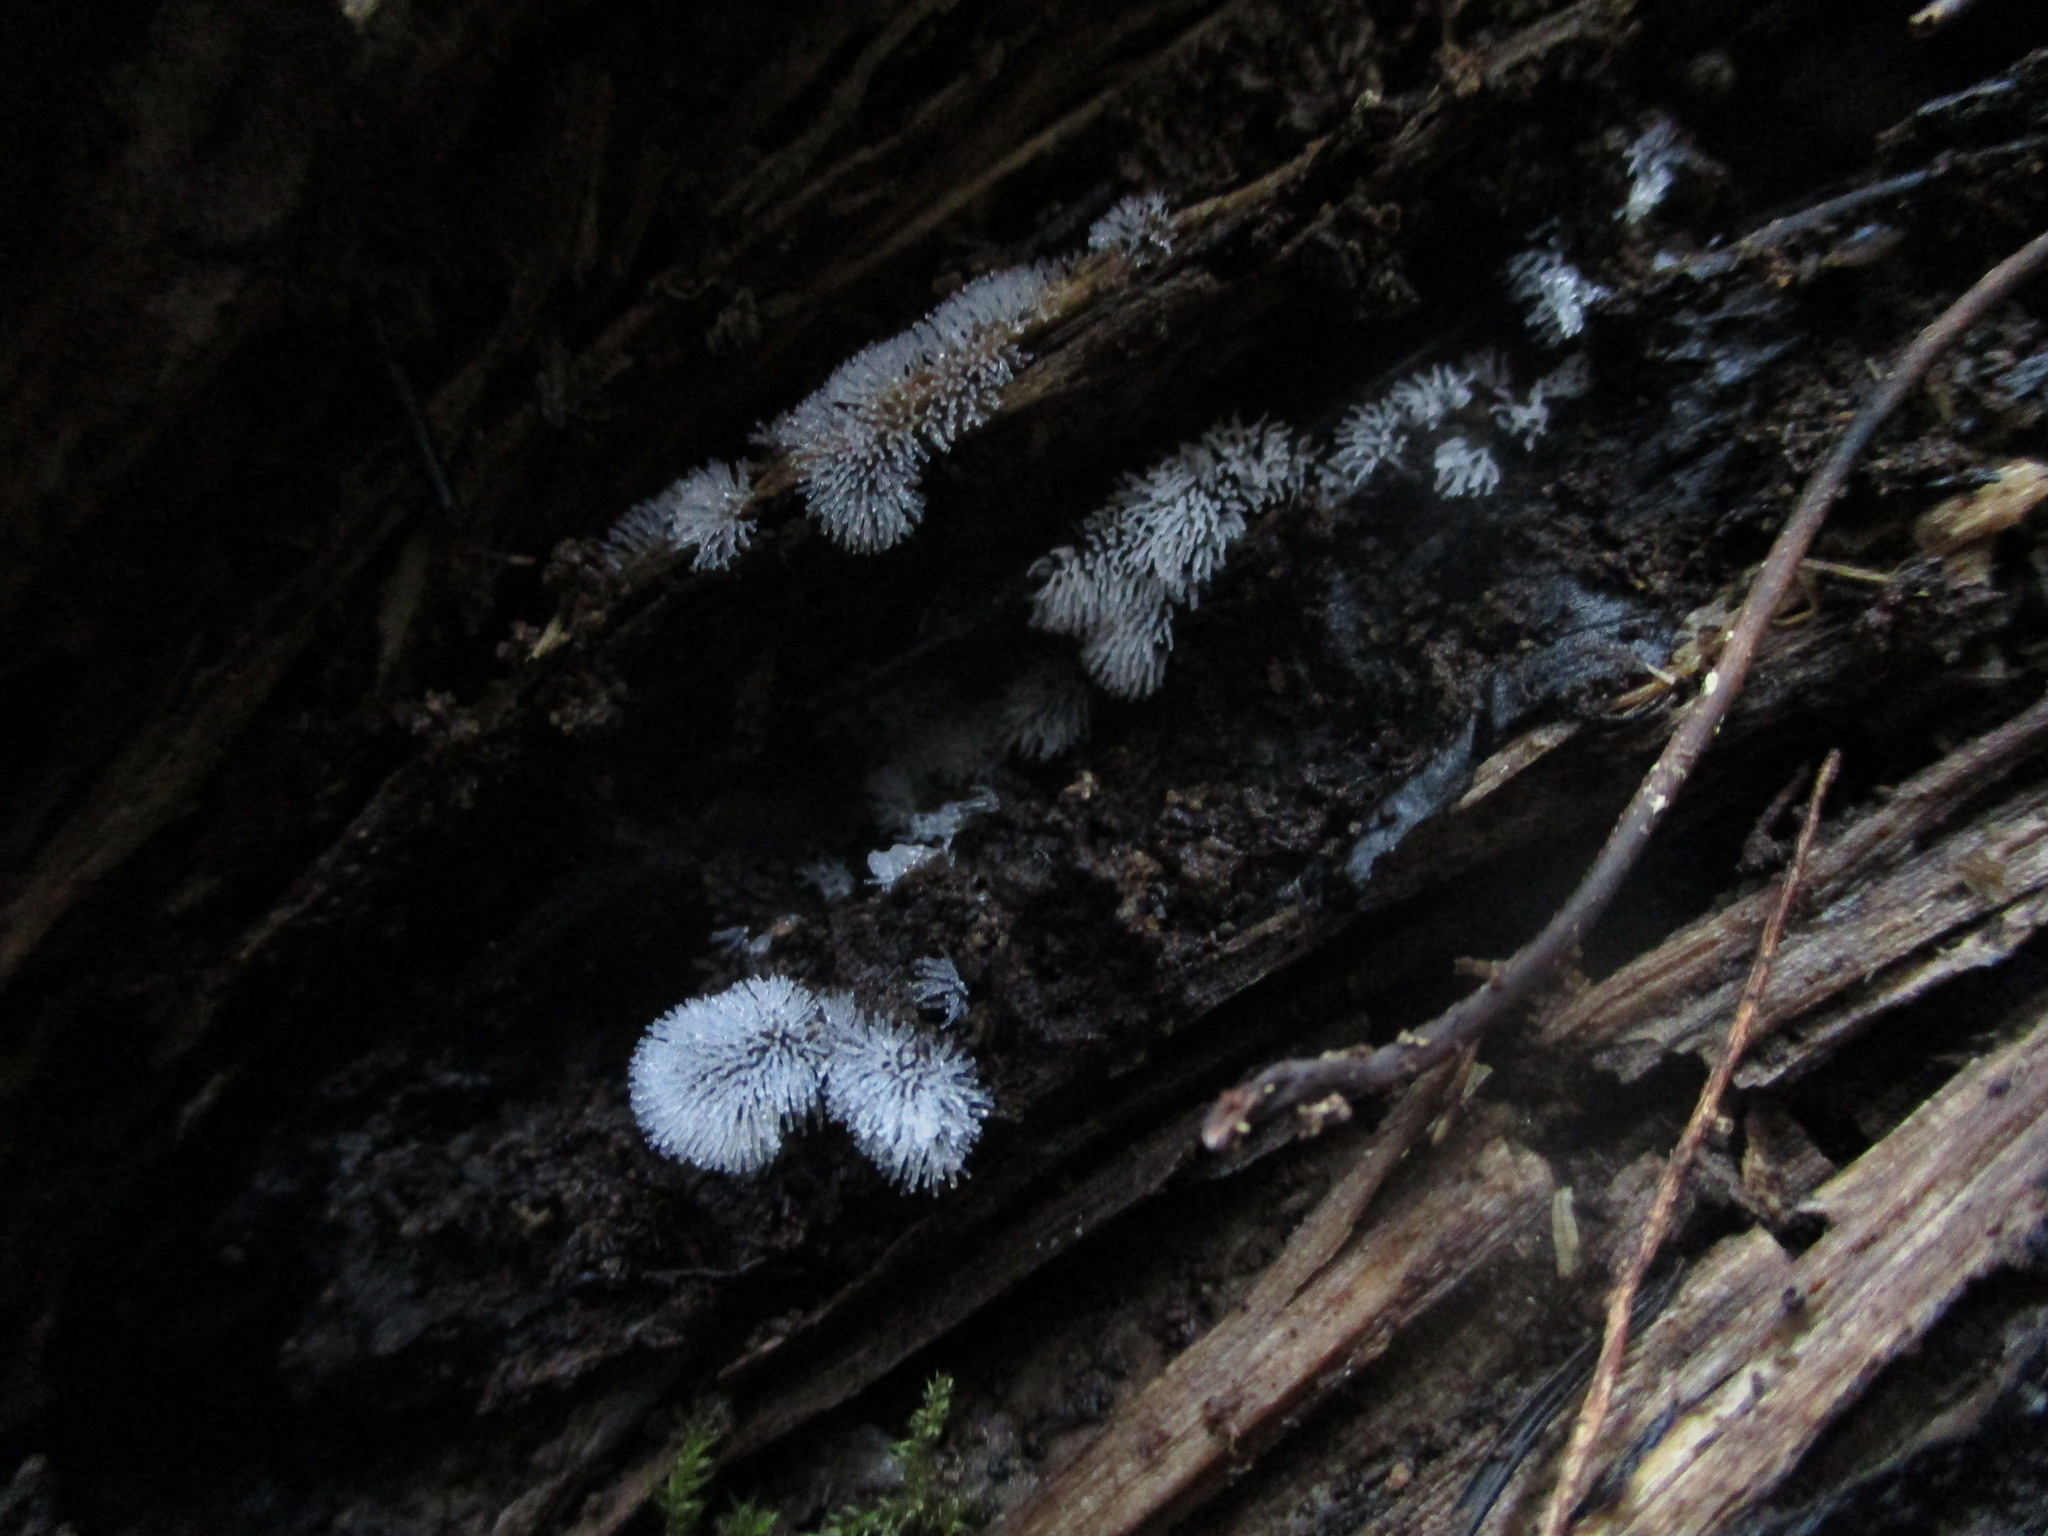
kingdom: Protozoa
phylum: Mycetozoa
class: Protosteliomycetes
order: Ceratiomyxales
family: Ceratiomyxaceae
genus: Ceratiomyxa
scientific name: Ceratiomyxa fruticulosa
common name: Honeycomb coral slime mold
